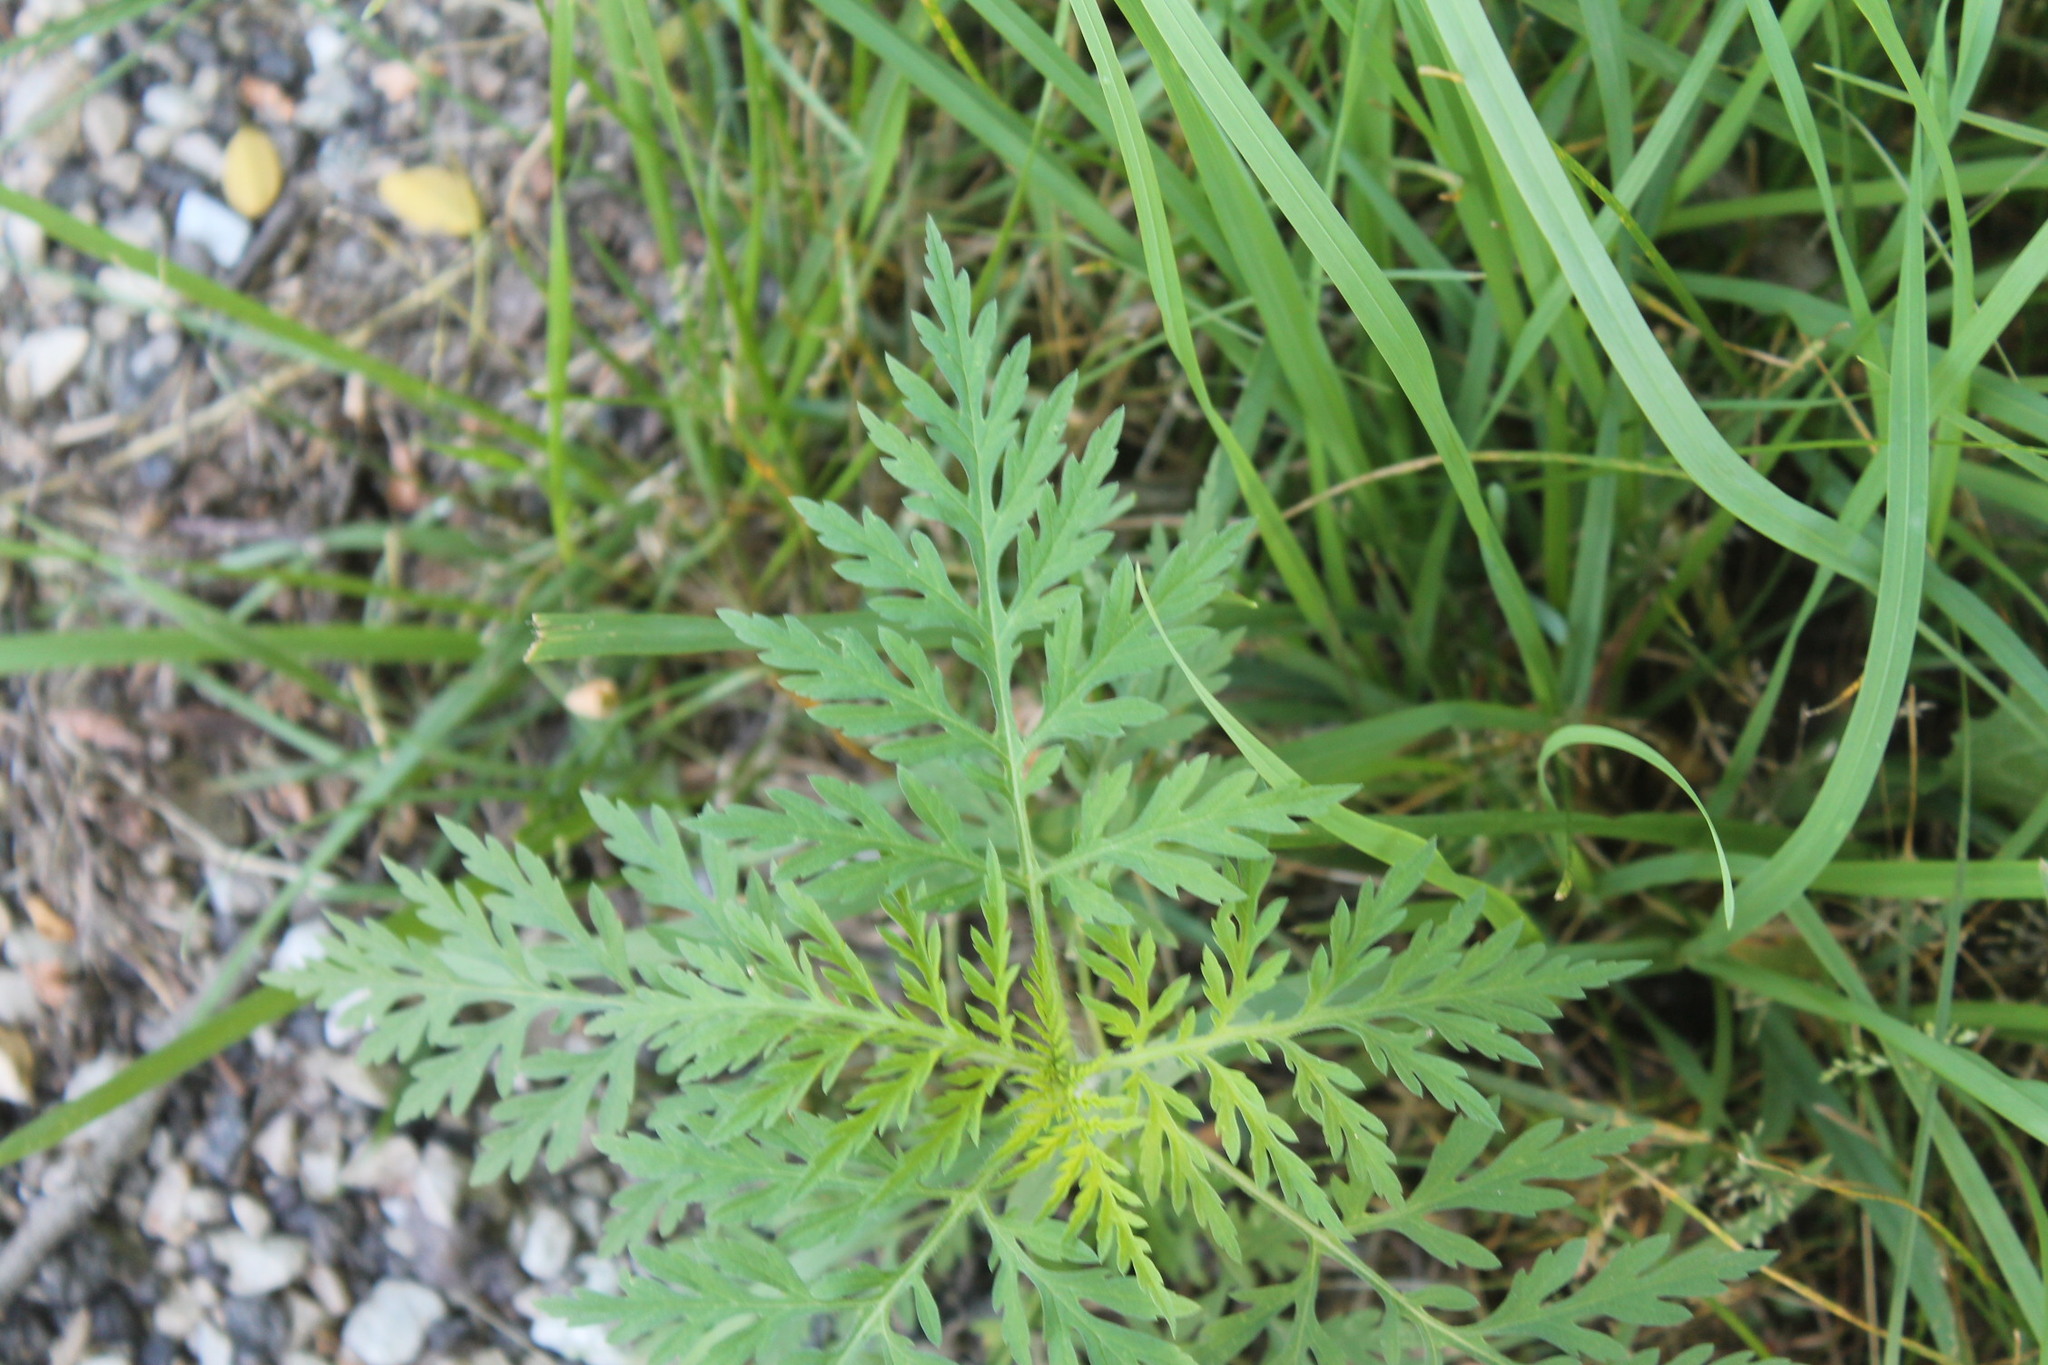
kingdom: Plantae
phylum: Tracheophyta
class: Magnoliopsida
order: Asterales
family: Asteraceae
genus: Ambrosia
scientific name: Ambrosia artemisiifolia
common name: Annual ragweed
